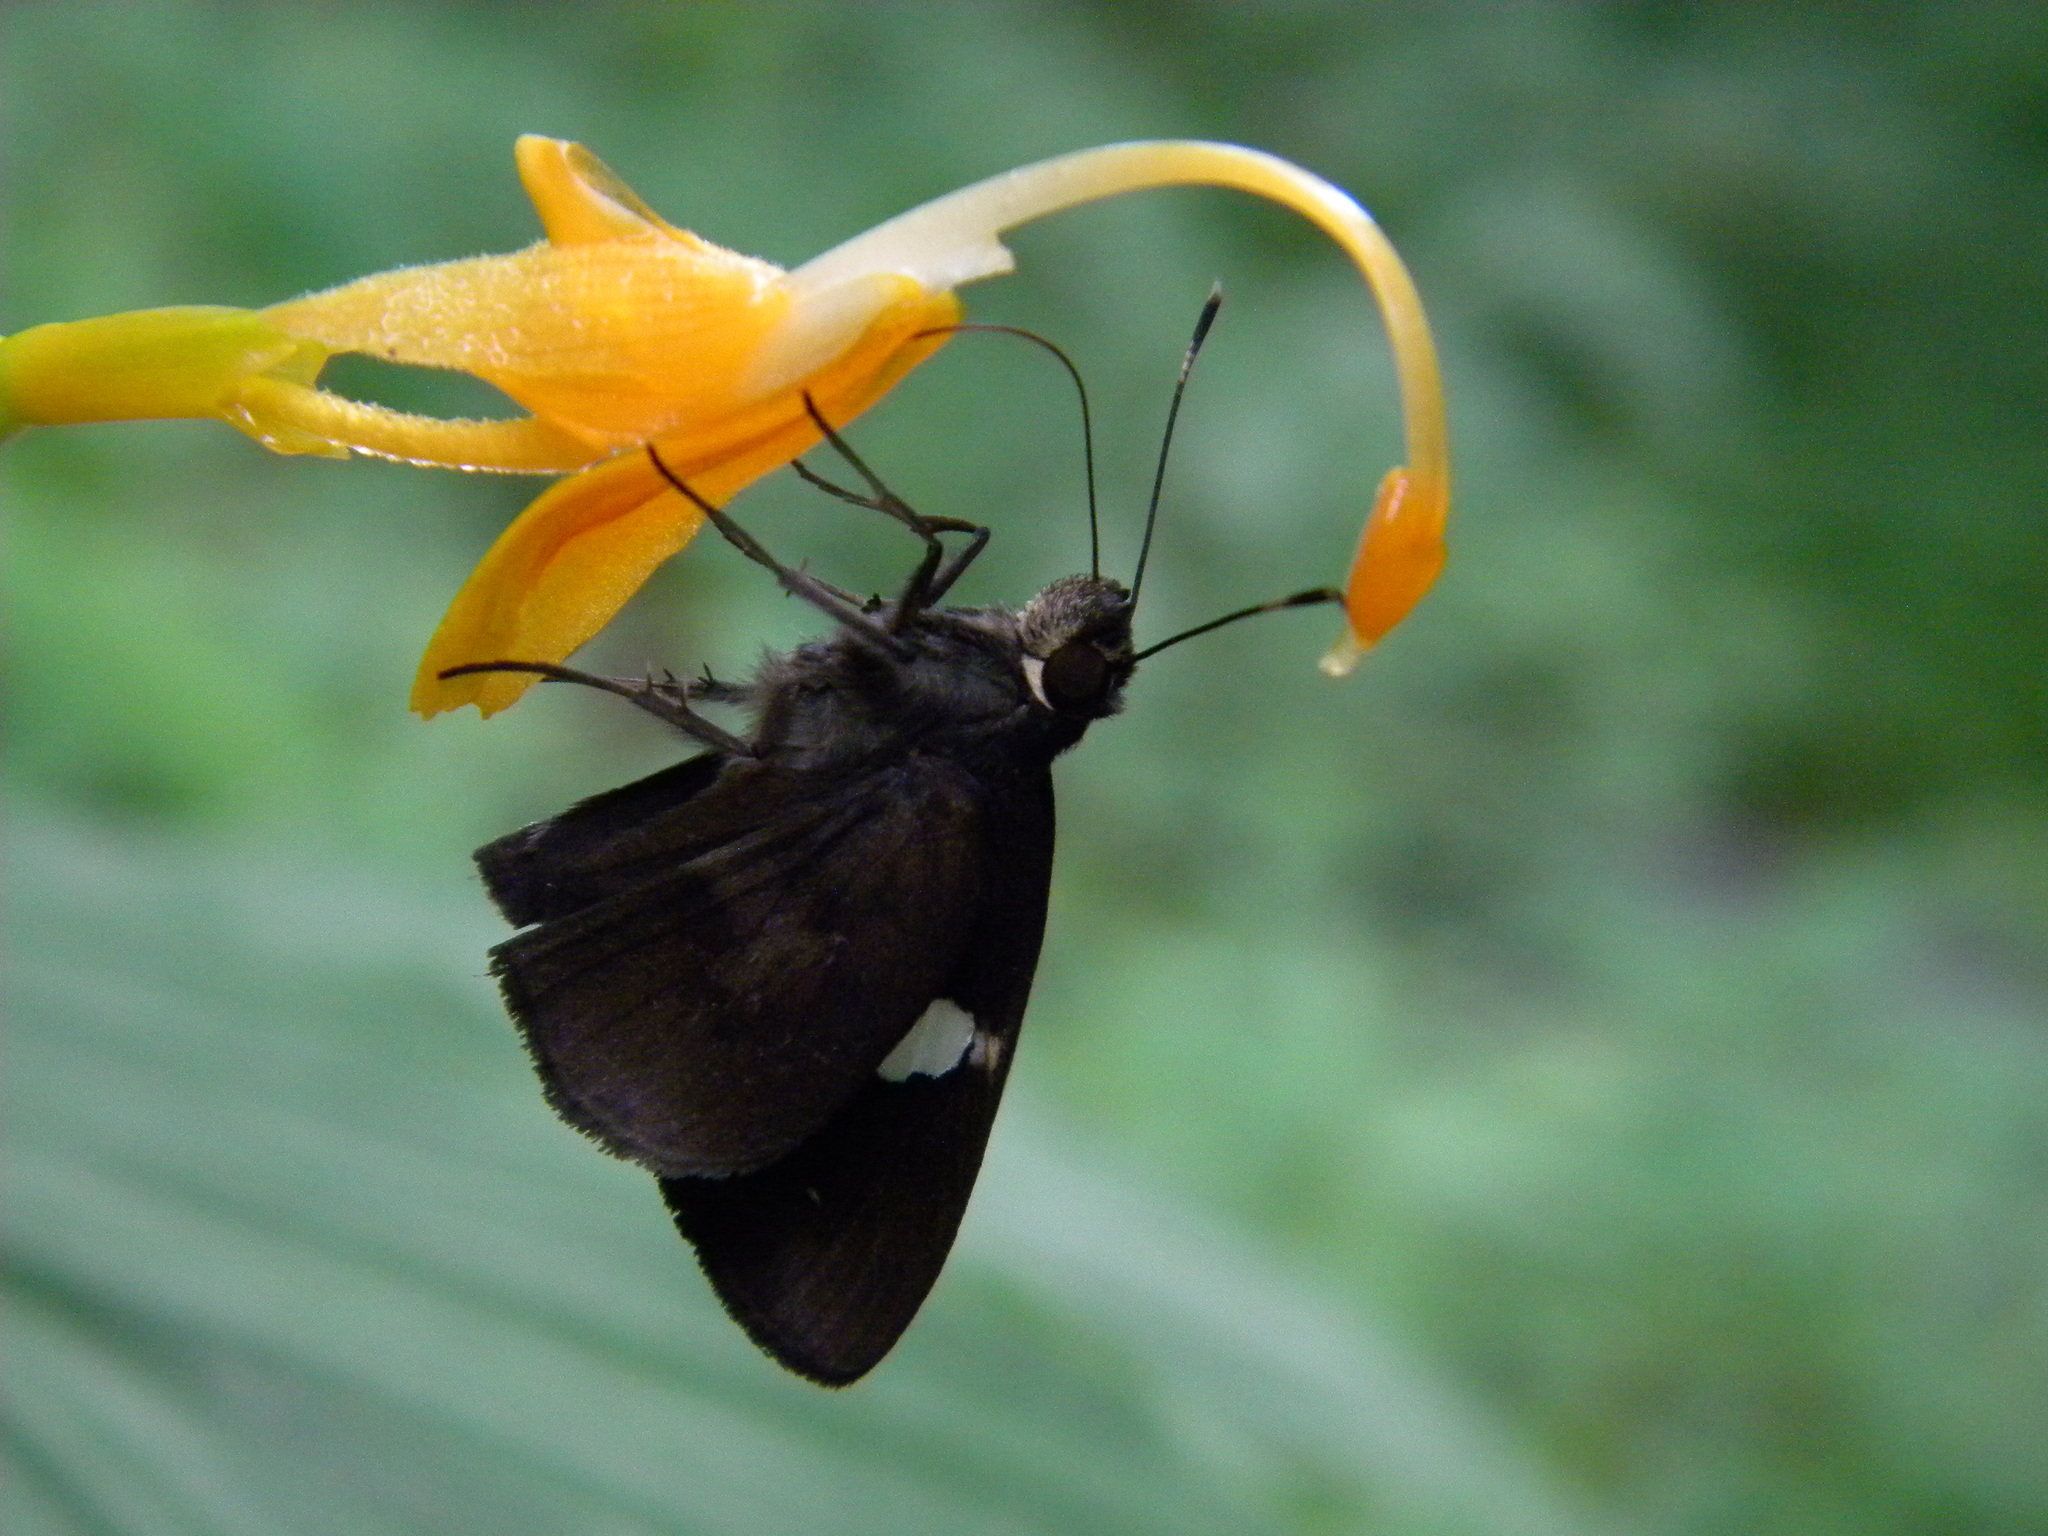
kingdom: Animalia
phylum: Arthropoda
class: Insecta
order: Lepidoptera
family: Hesperiidae
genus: Notocrypta
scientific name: Notocrypta paralysos
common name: Common banded demon
